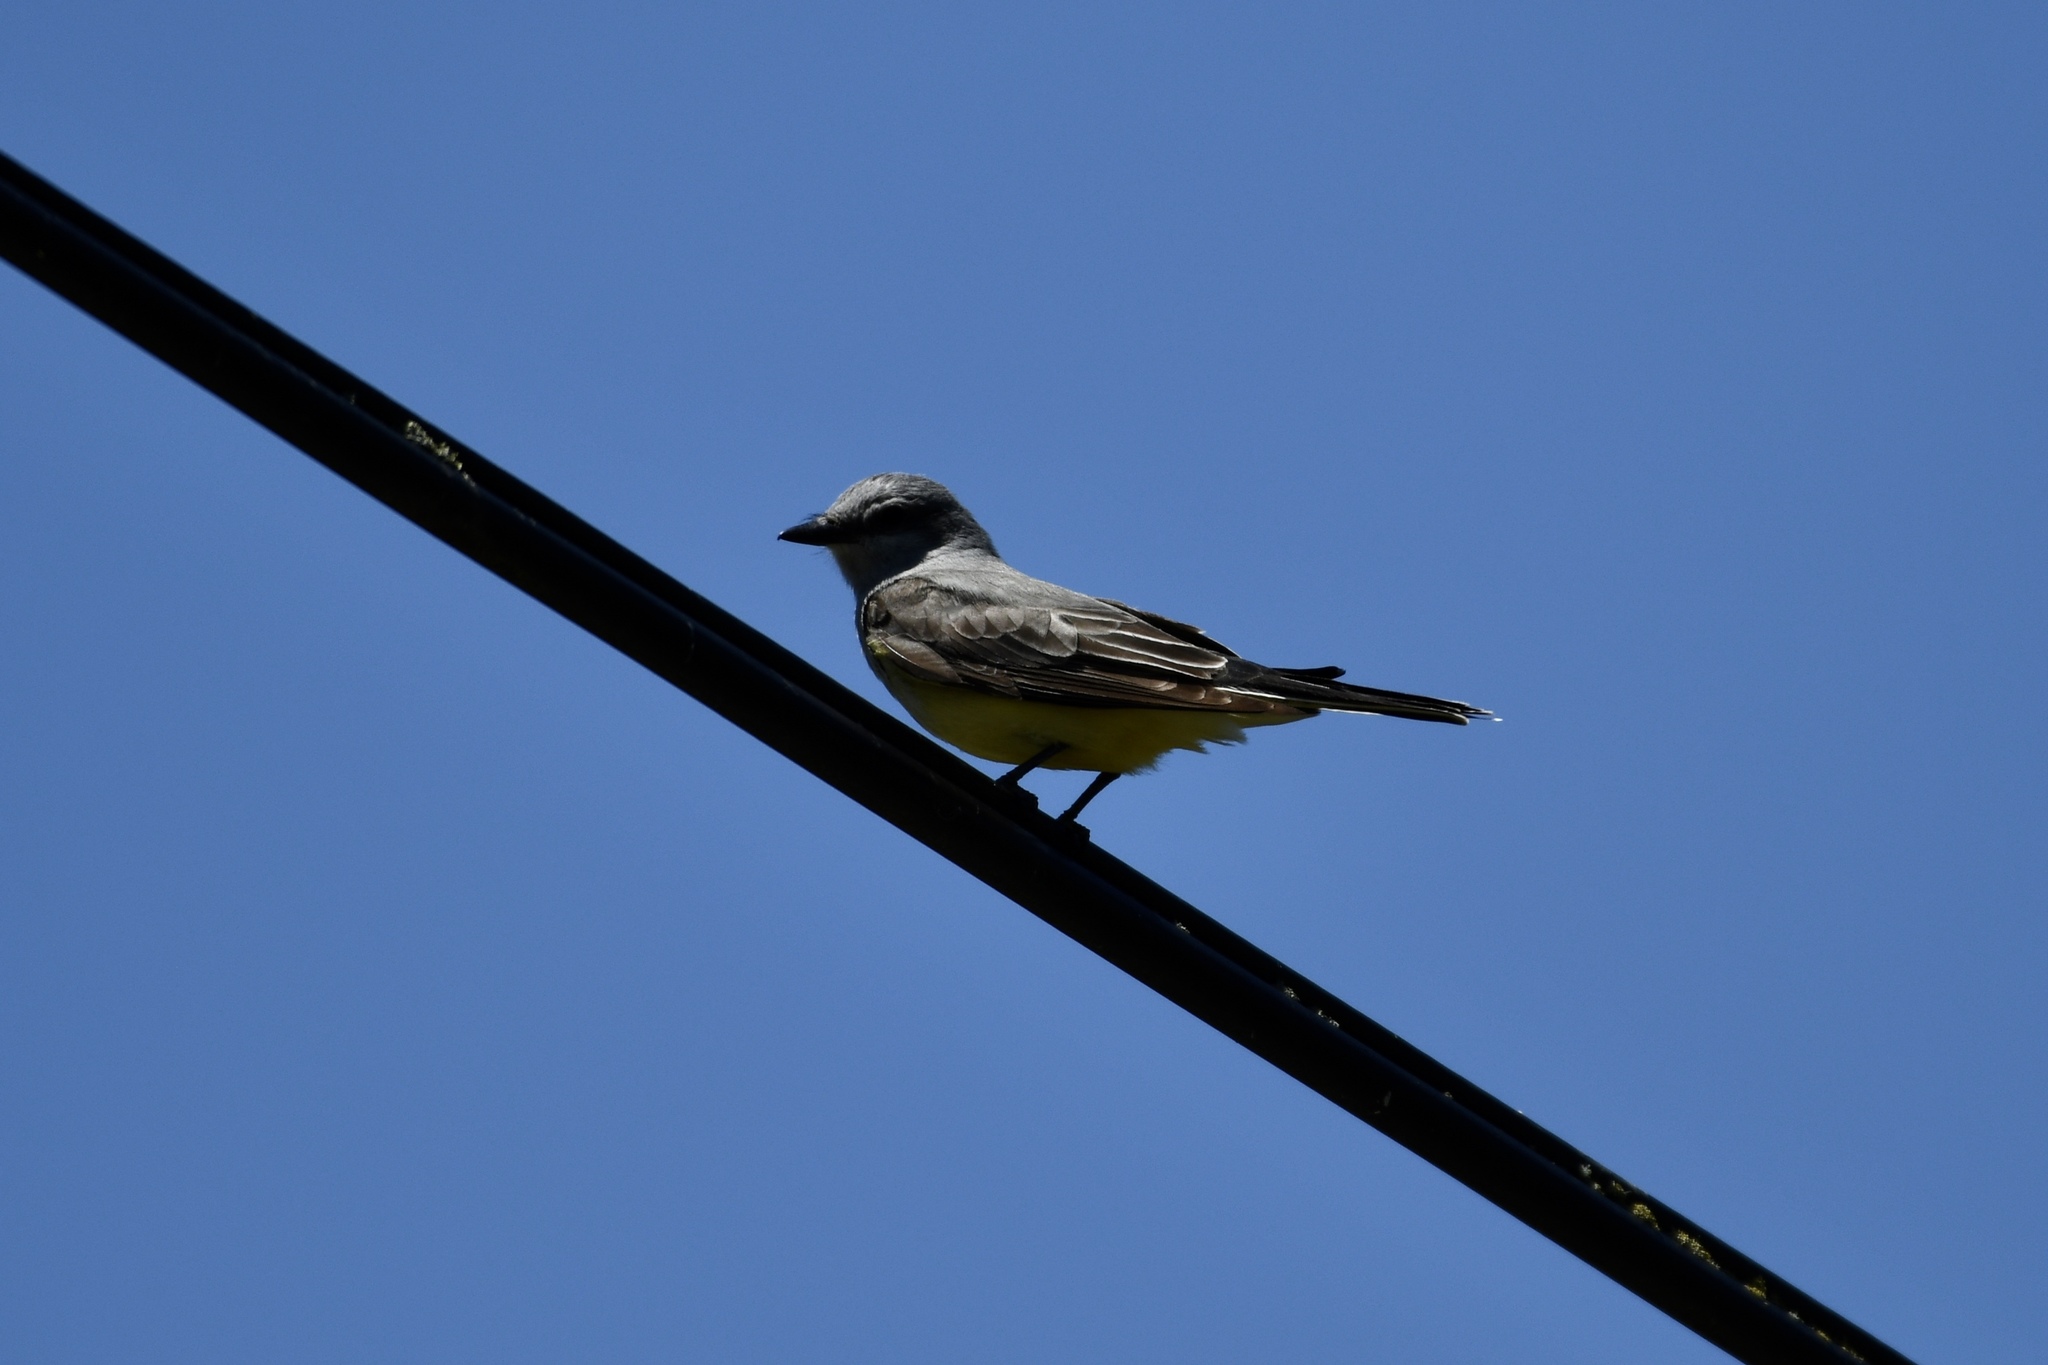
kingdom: Animalia
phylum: Chordata
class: Aves
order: Passeriformes
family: Tyrannidae
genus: Tyrannus
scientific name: Tyrannus verticalis
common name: Western kingbird
